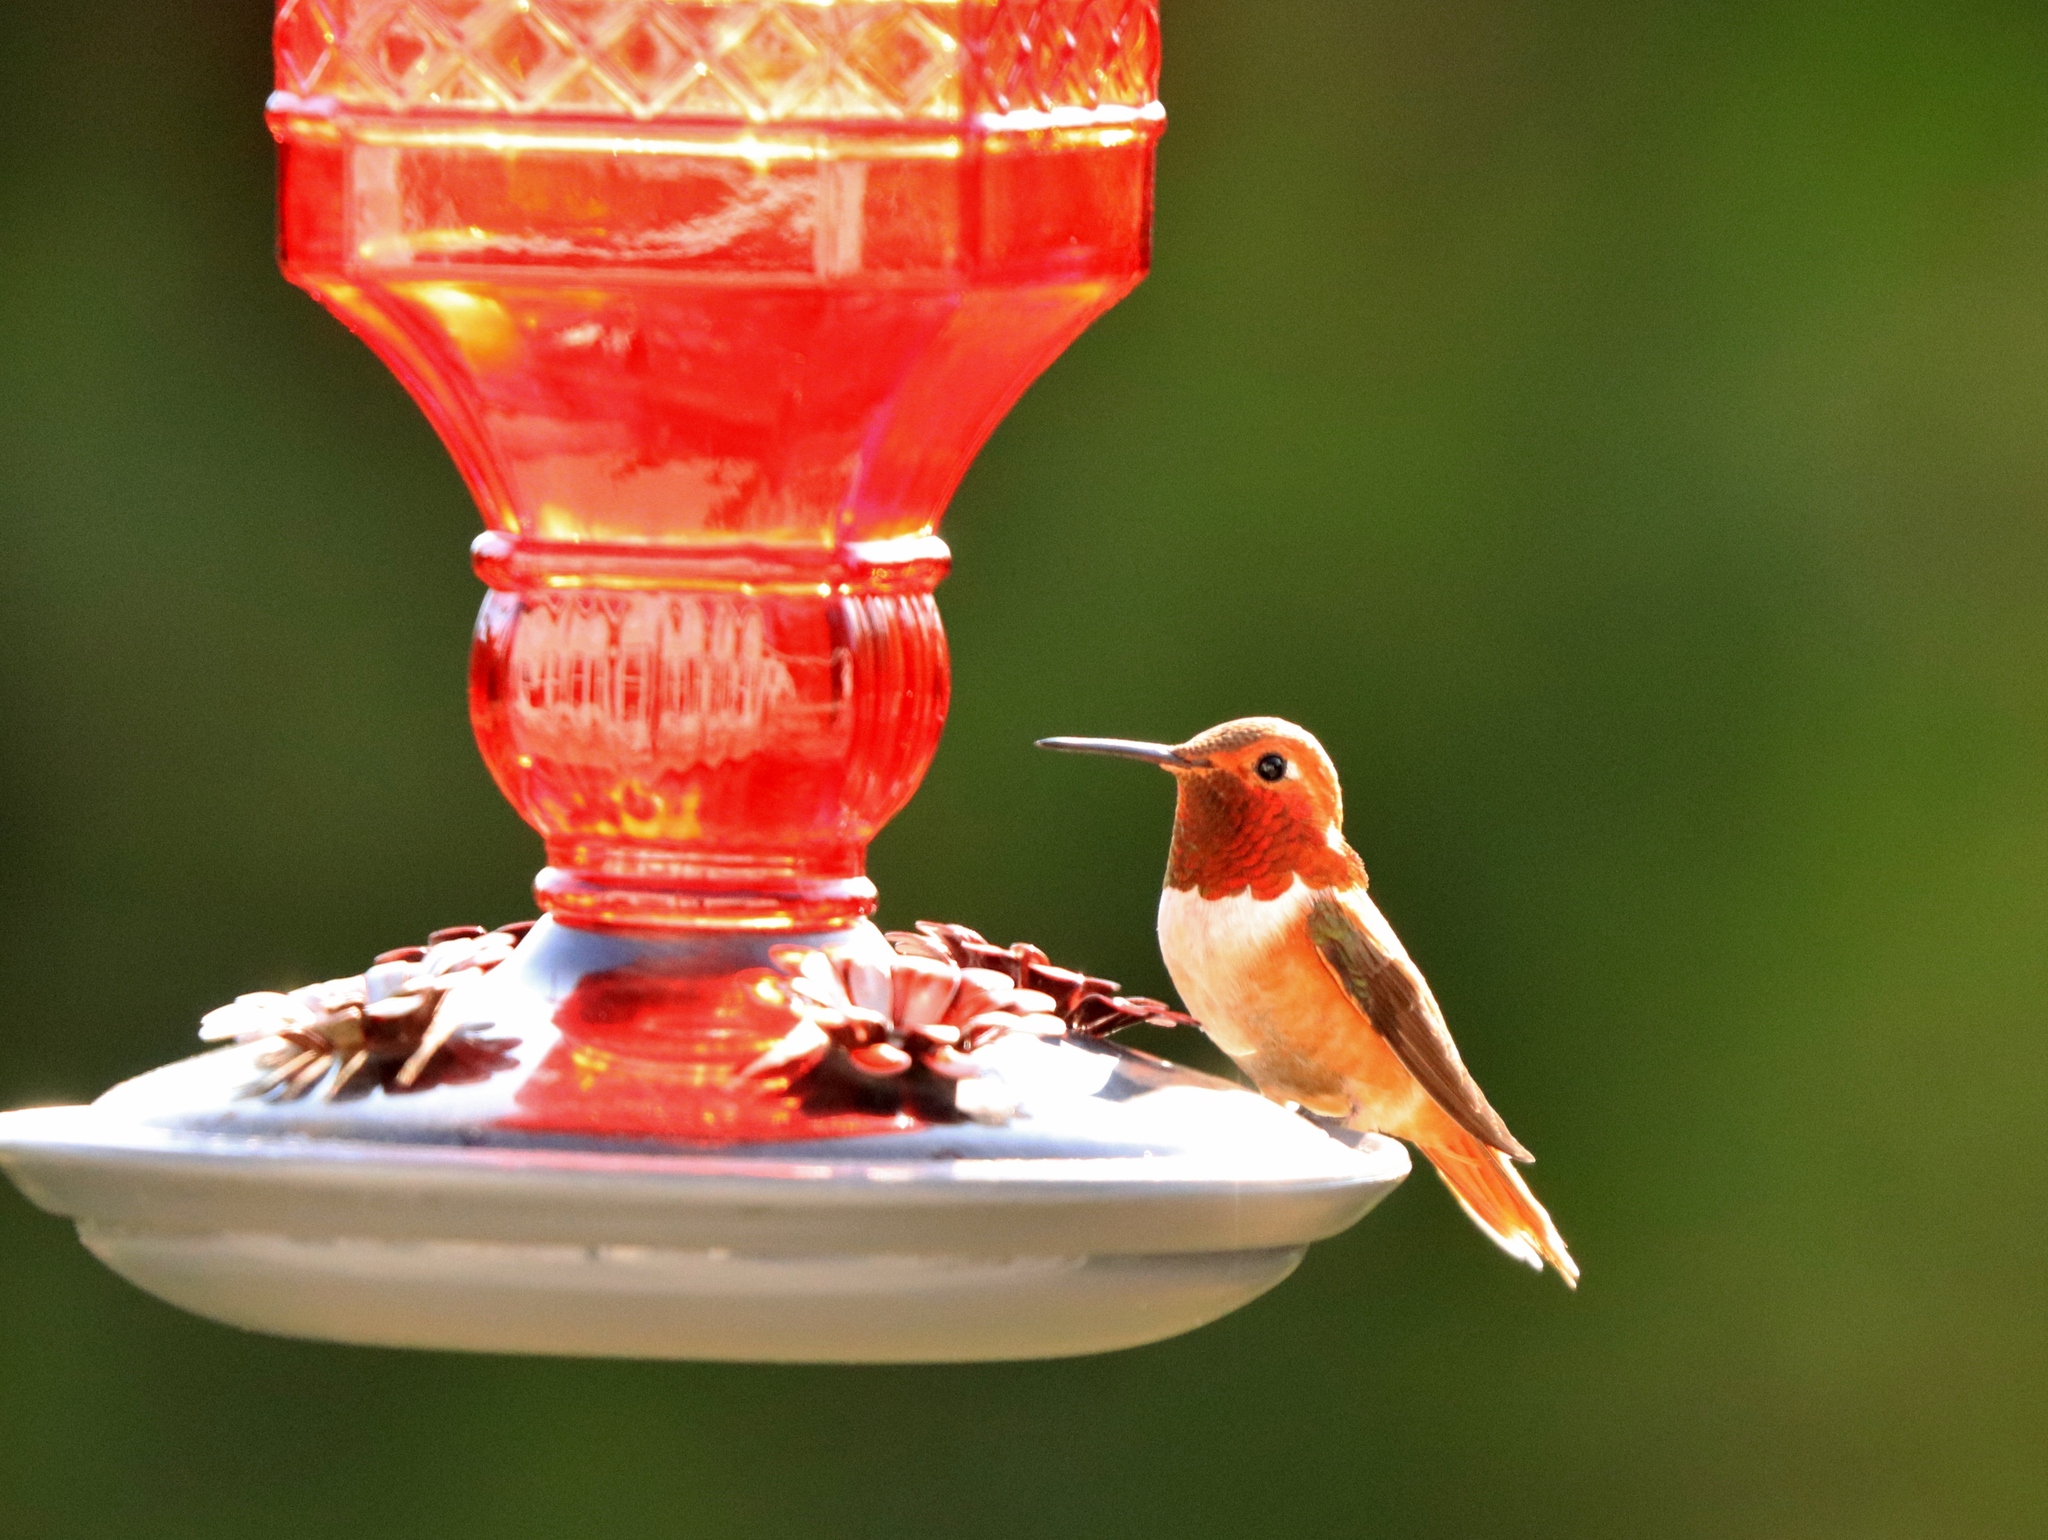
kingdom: Animalia
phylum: Chordata
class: Aves
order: Apodiformes
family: Trochilidae
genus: Selasphorus
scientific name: Selasphorus rufus
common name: Rufous hummingbird
